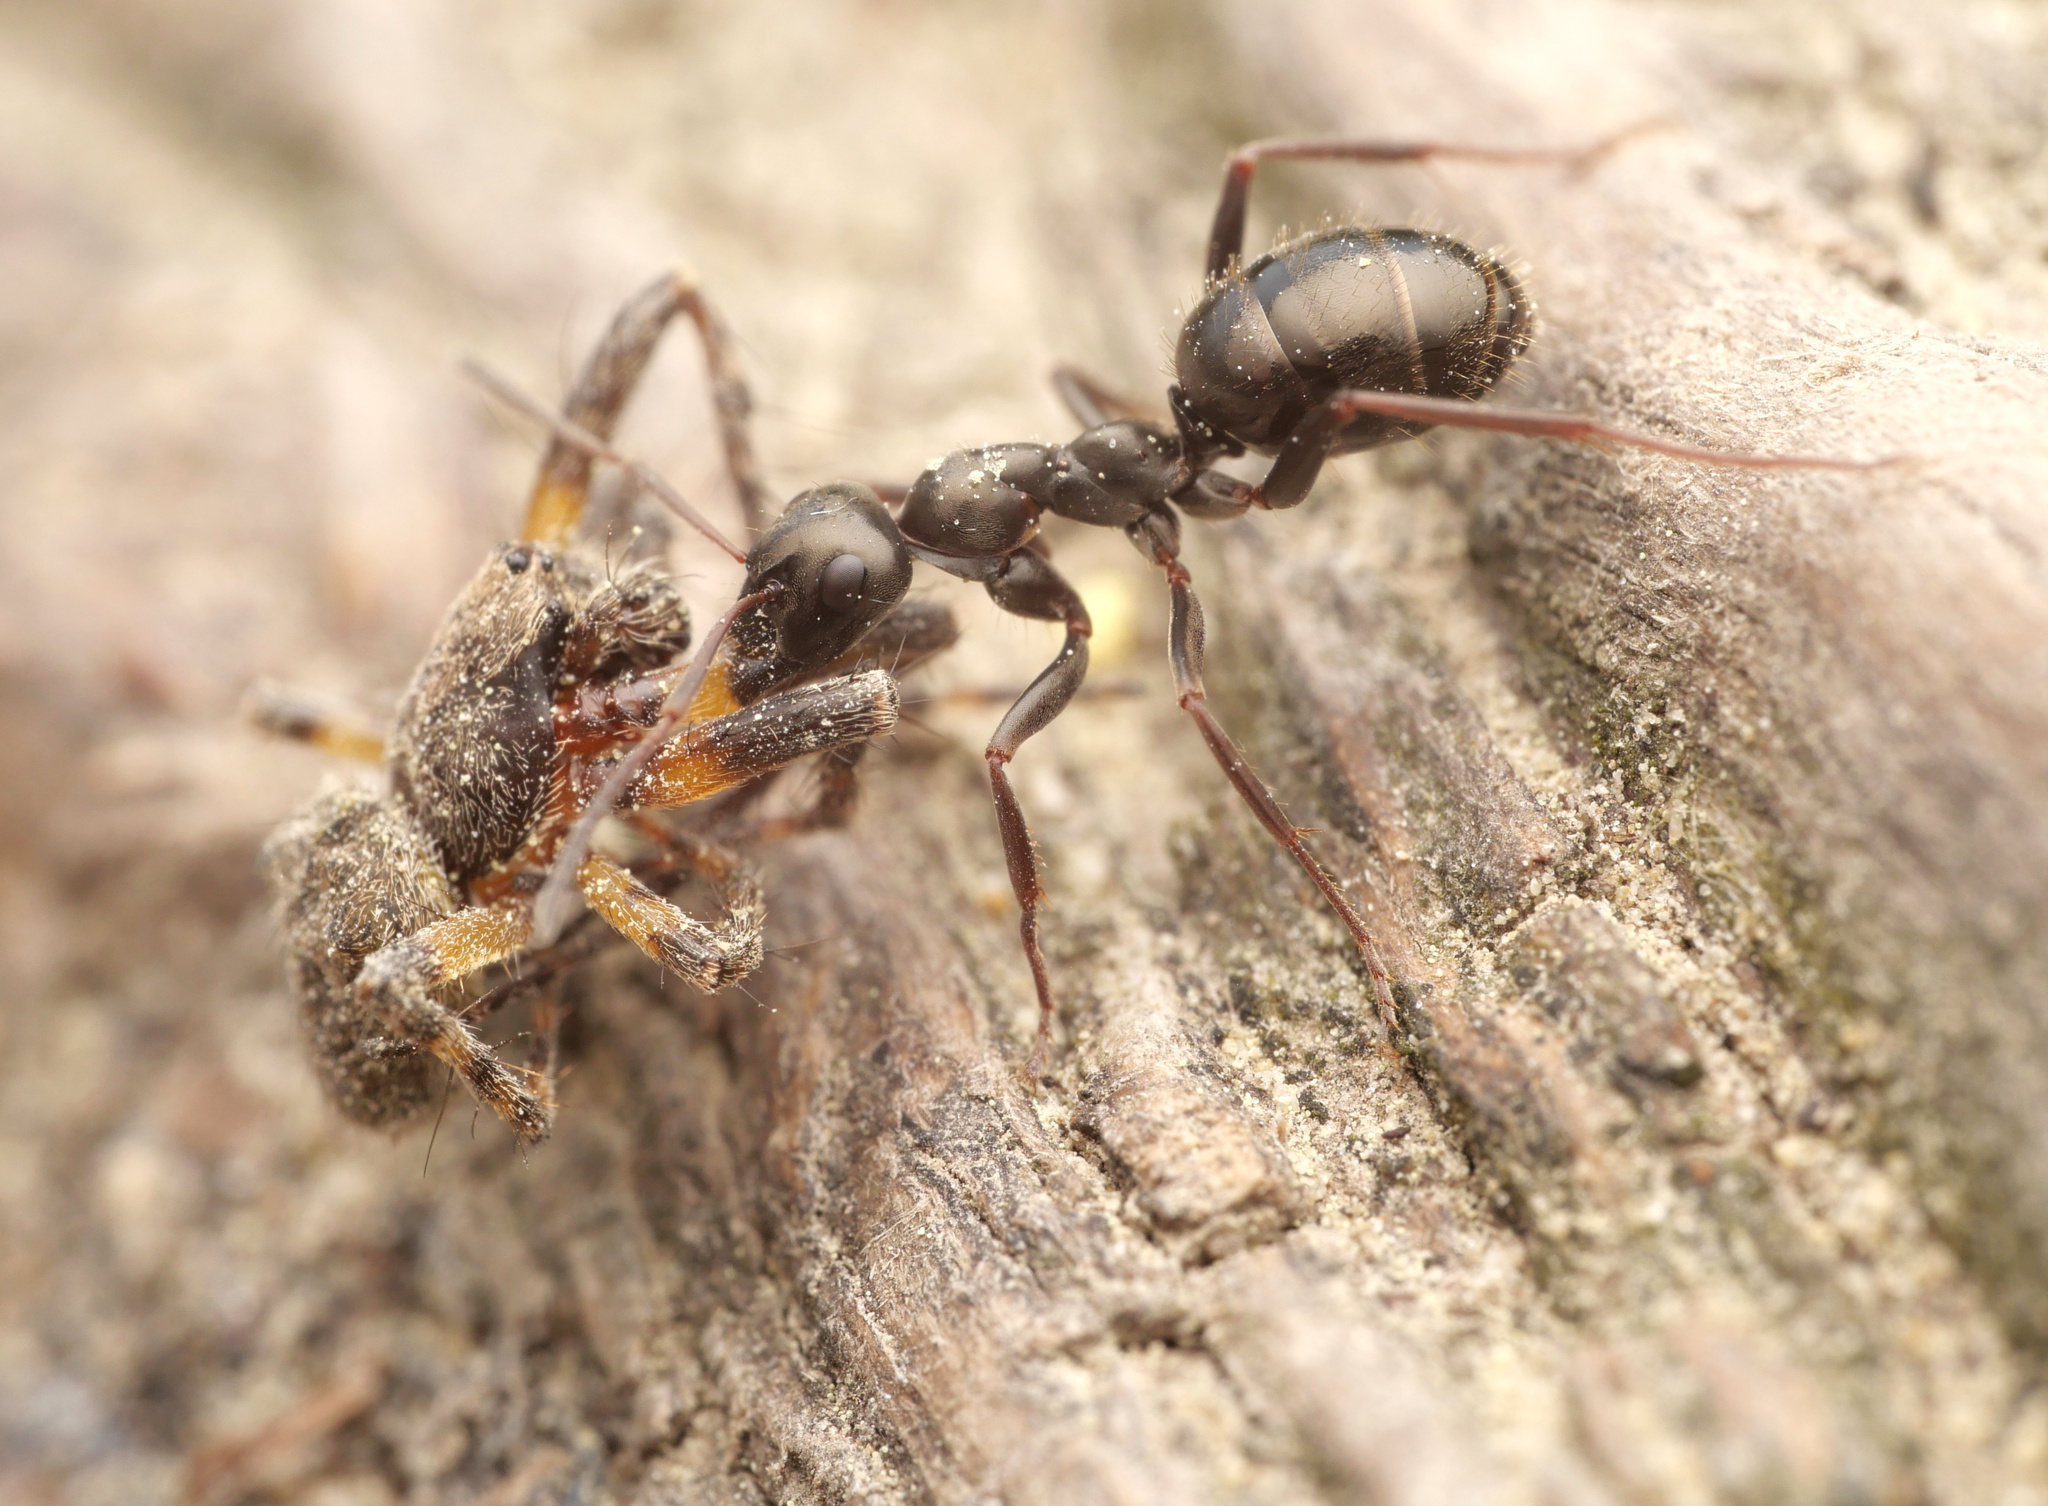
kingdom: Animalia
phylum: Arthropoda
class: Insecta
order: Hymenoptera
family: Formicidae
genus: Formica
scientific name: Formica gagates
